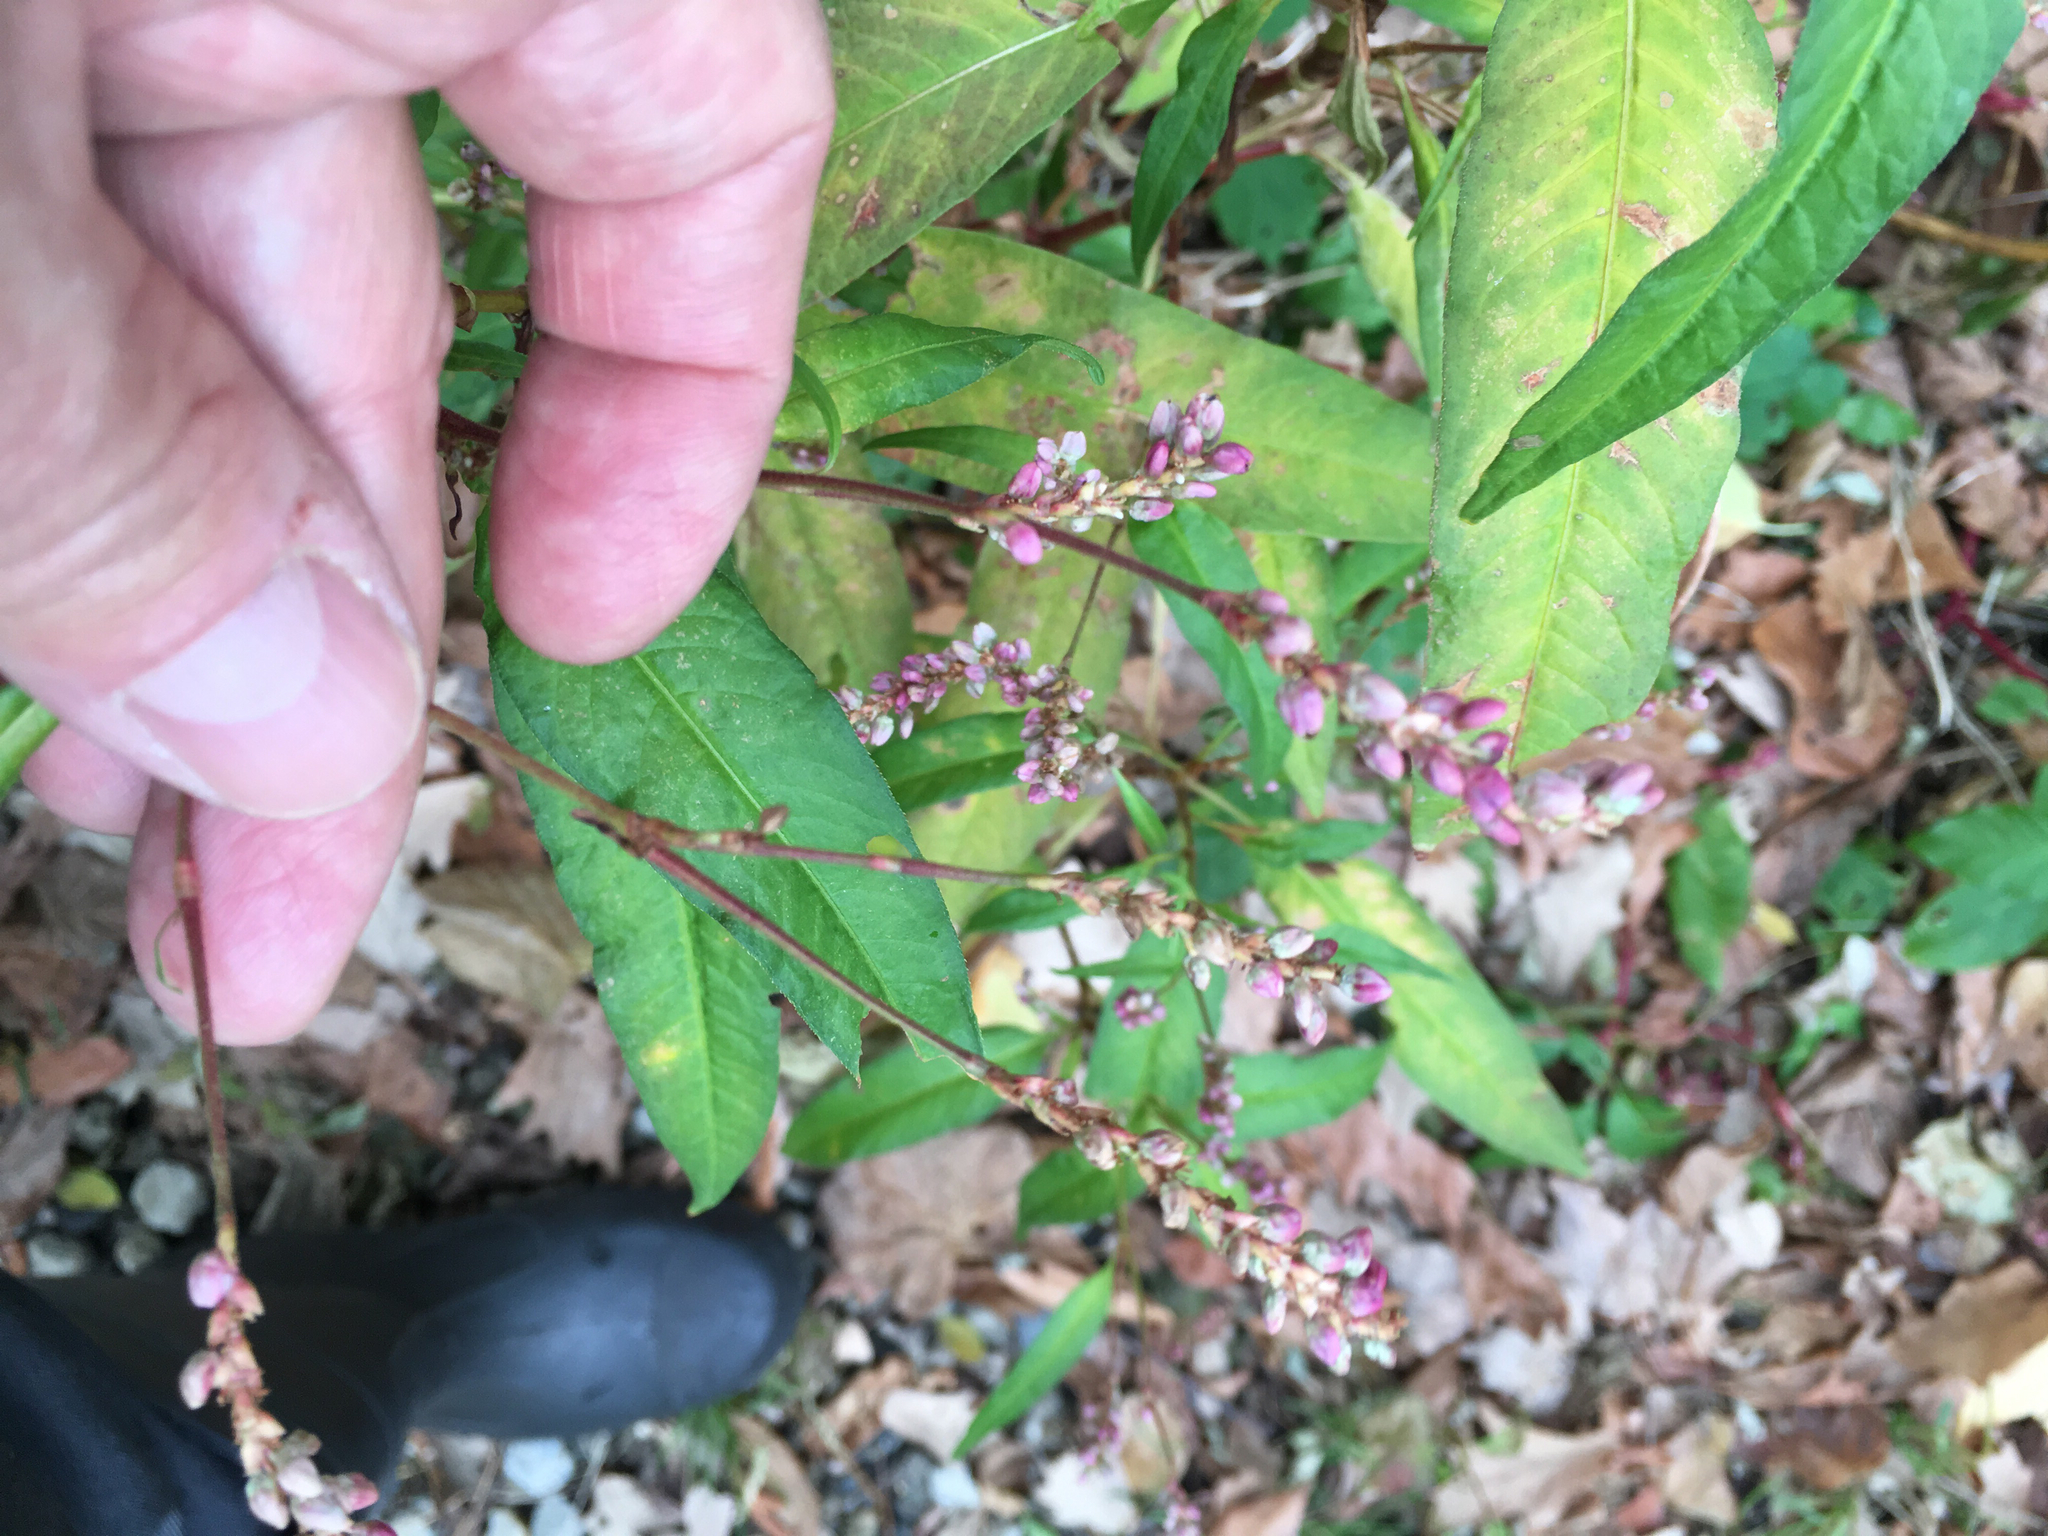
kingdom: Plantae
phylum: Tracheophyta
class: Magnoliopsida
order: Caryophyllales
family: Polygonaceae
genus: Persicaria
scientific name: Persicaria pensylvanica
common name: Pinkweed
